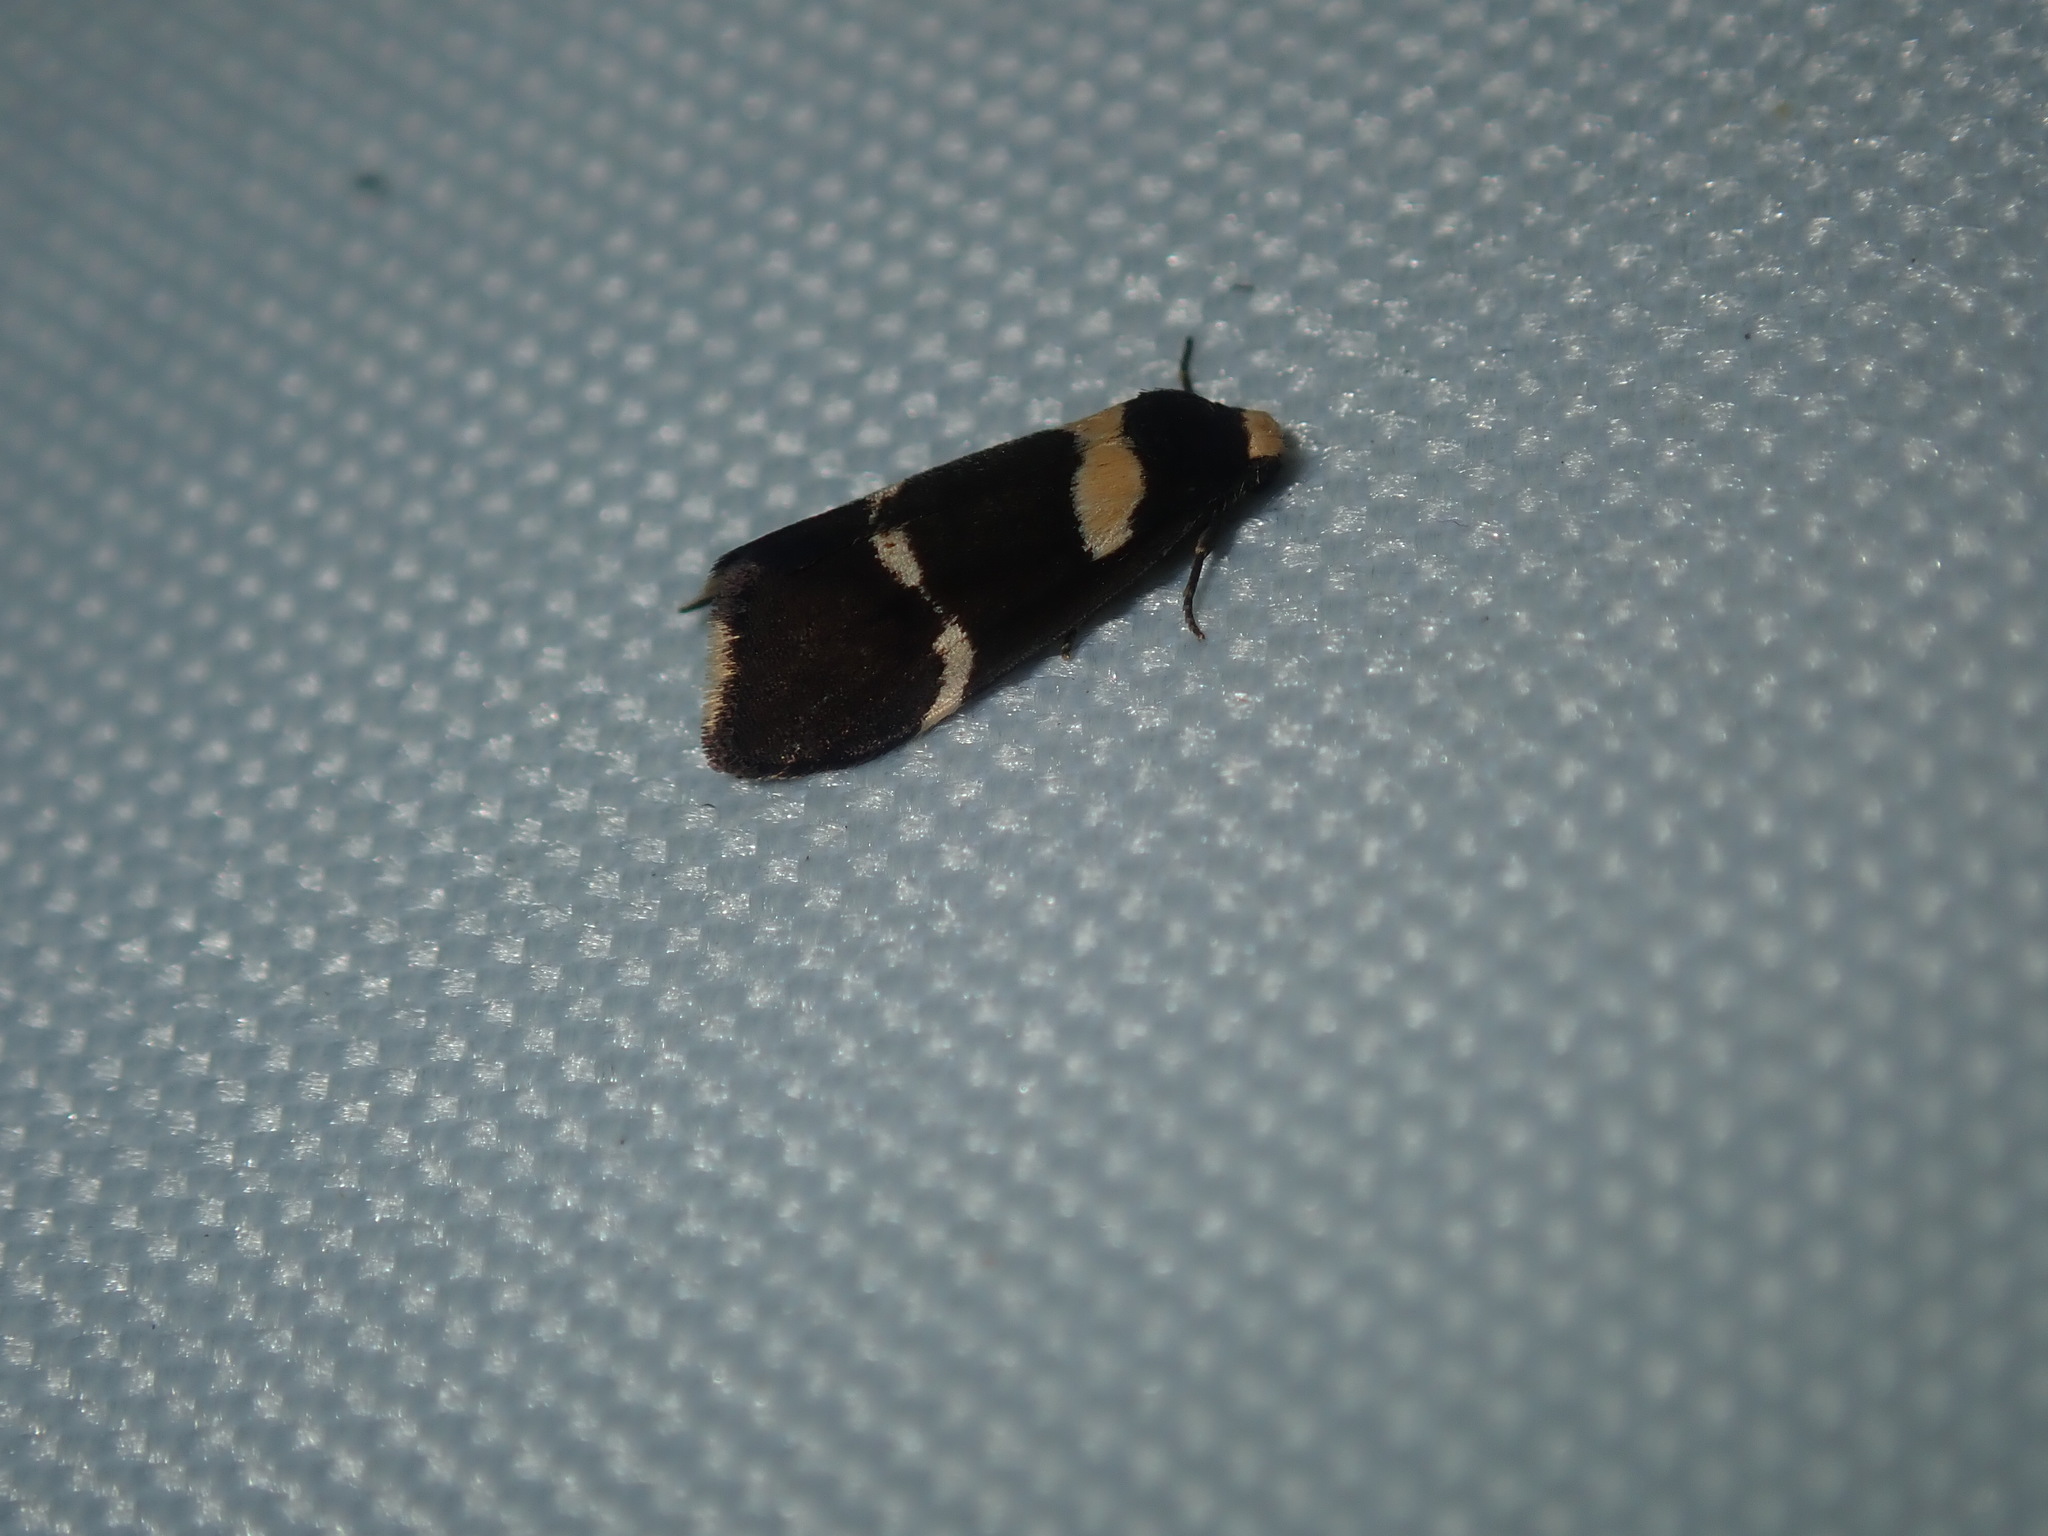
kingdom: Animalia
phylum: Arthropoda
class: Insecta
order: Lepidoptera
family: Erebidae
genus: Thallarcha
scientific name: Thallarcha phalarota
